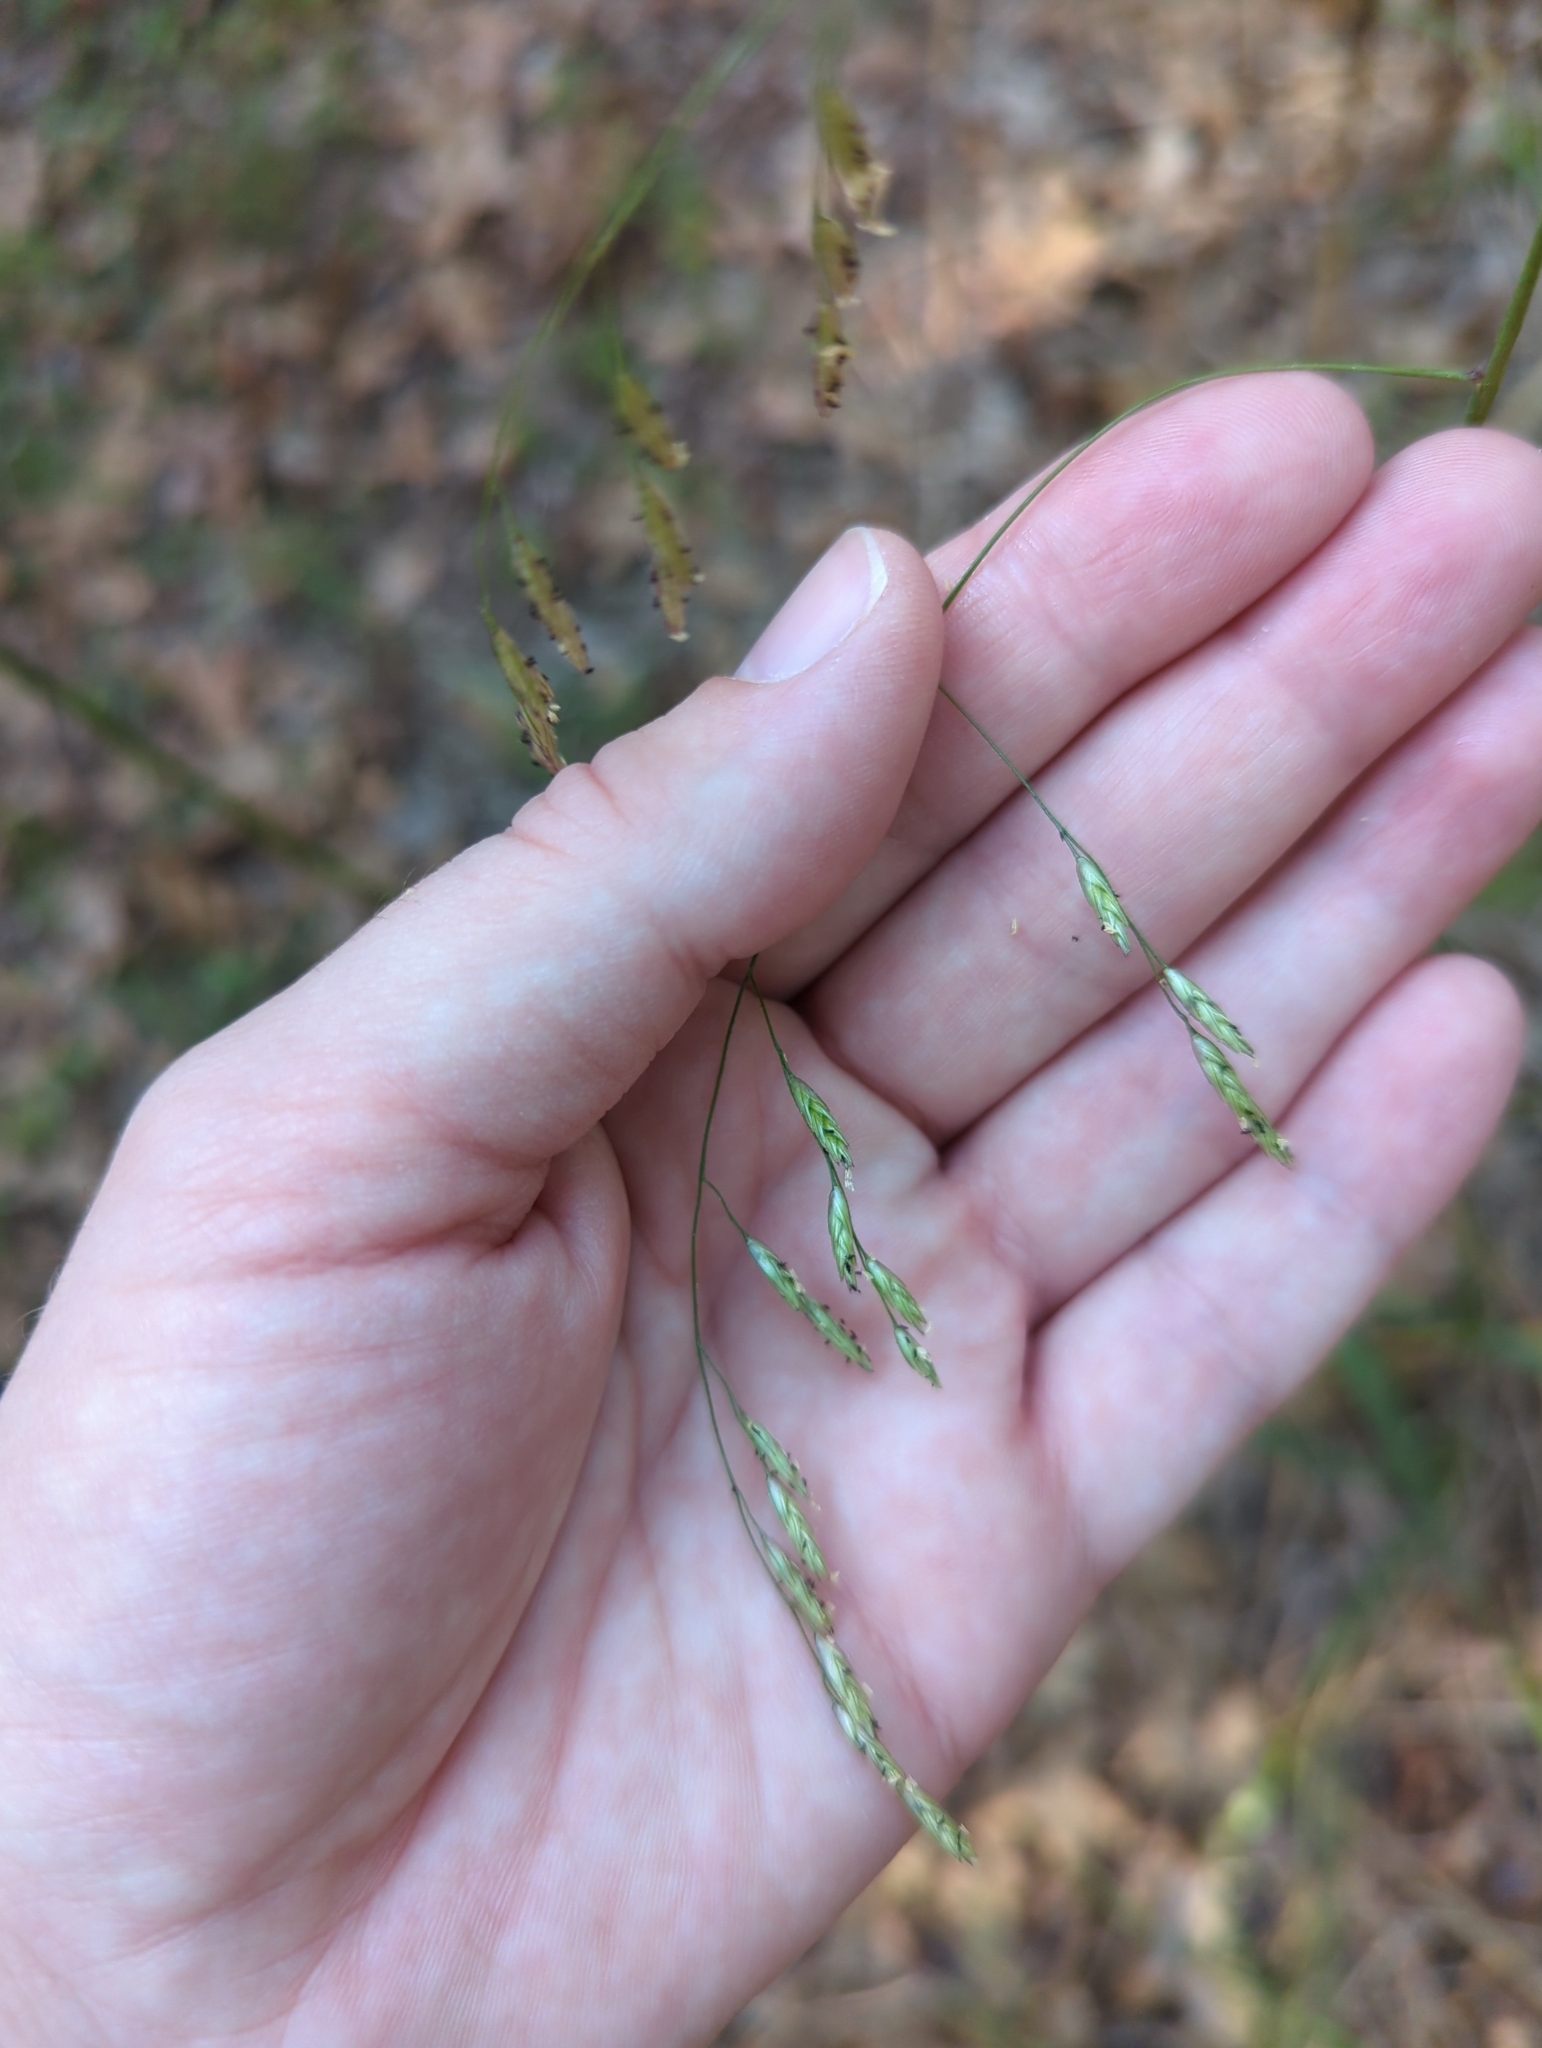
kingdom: Plantae
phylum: Tracheophyta
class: Liliopsida
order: Poales
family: Poaceae
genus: Tridens
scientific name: Tridens flavus
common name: Purpletop
